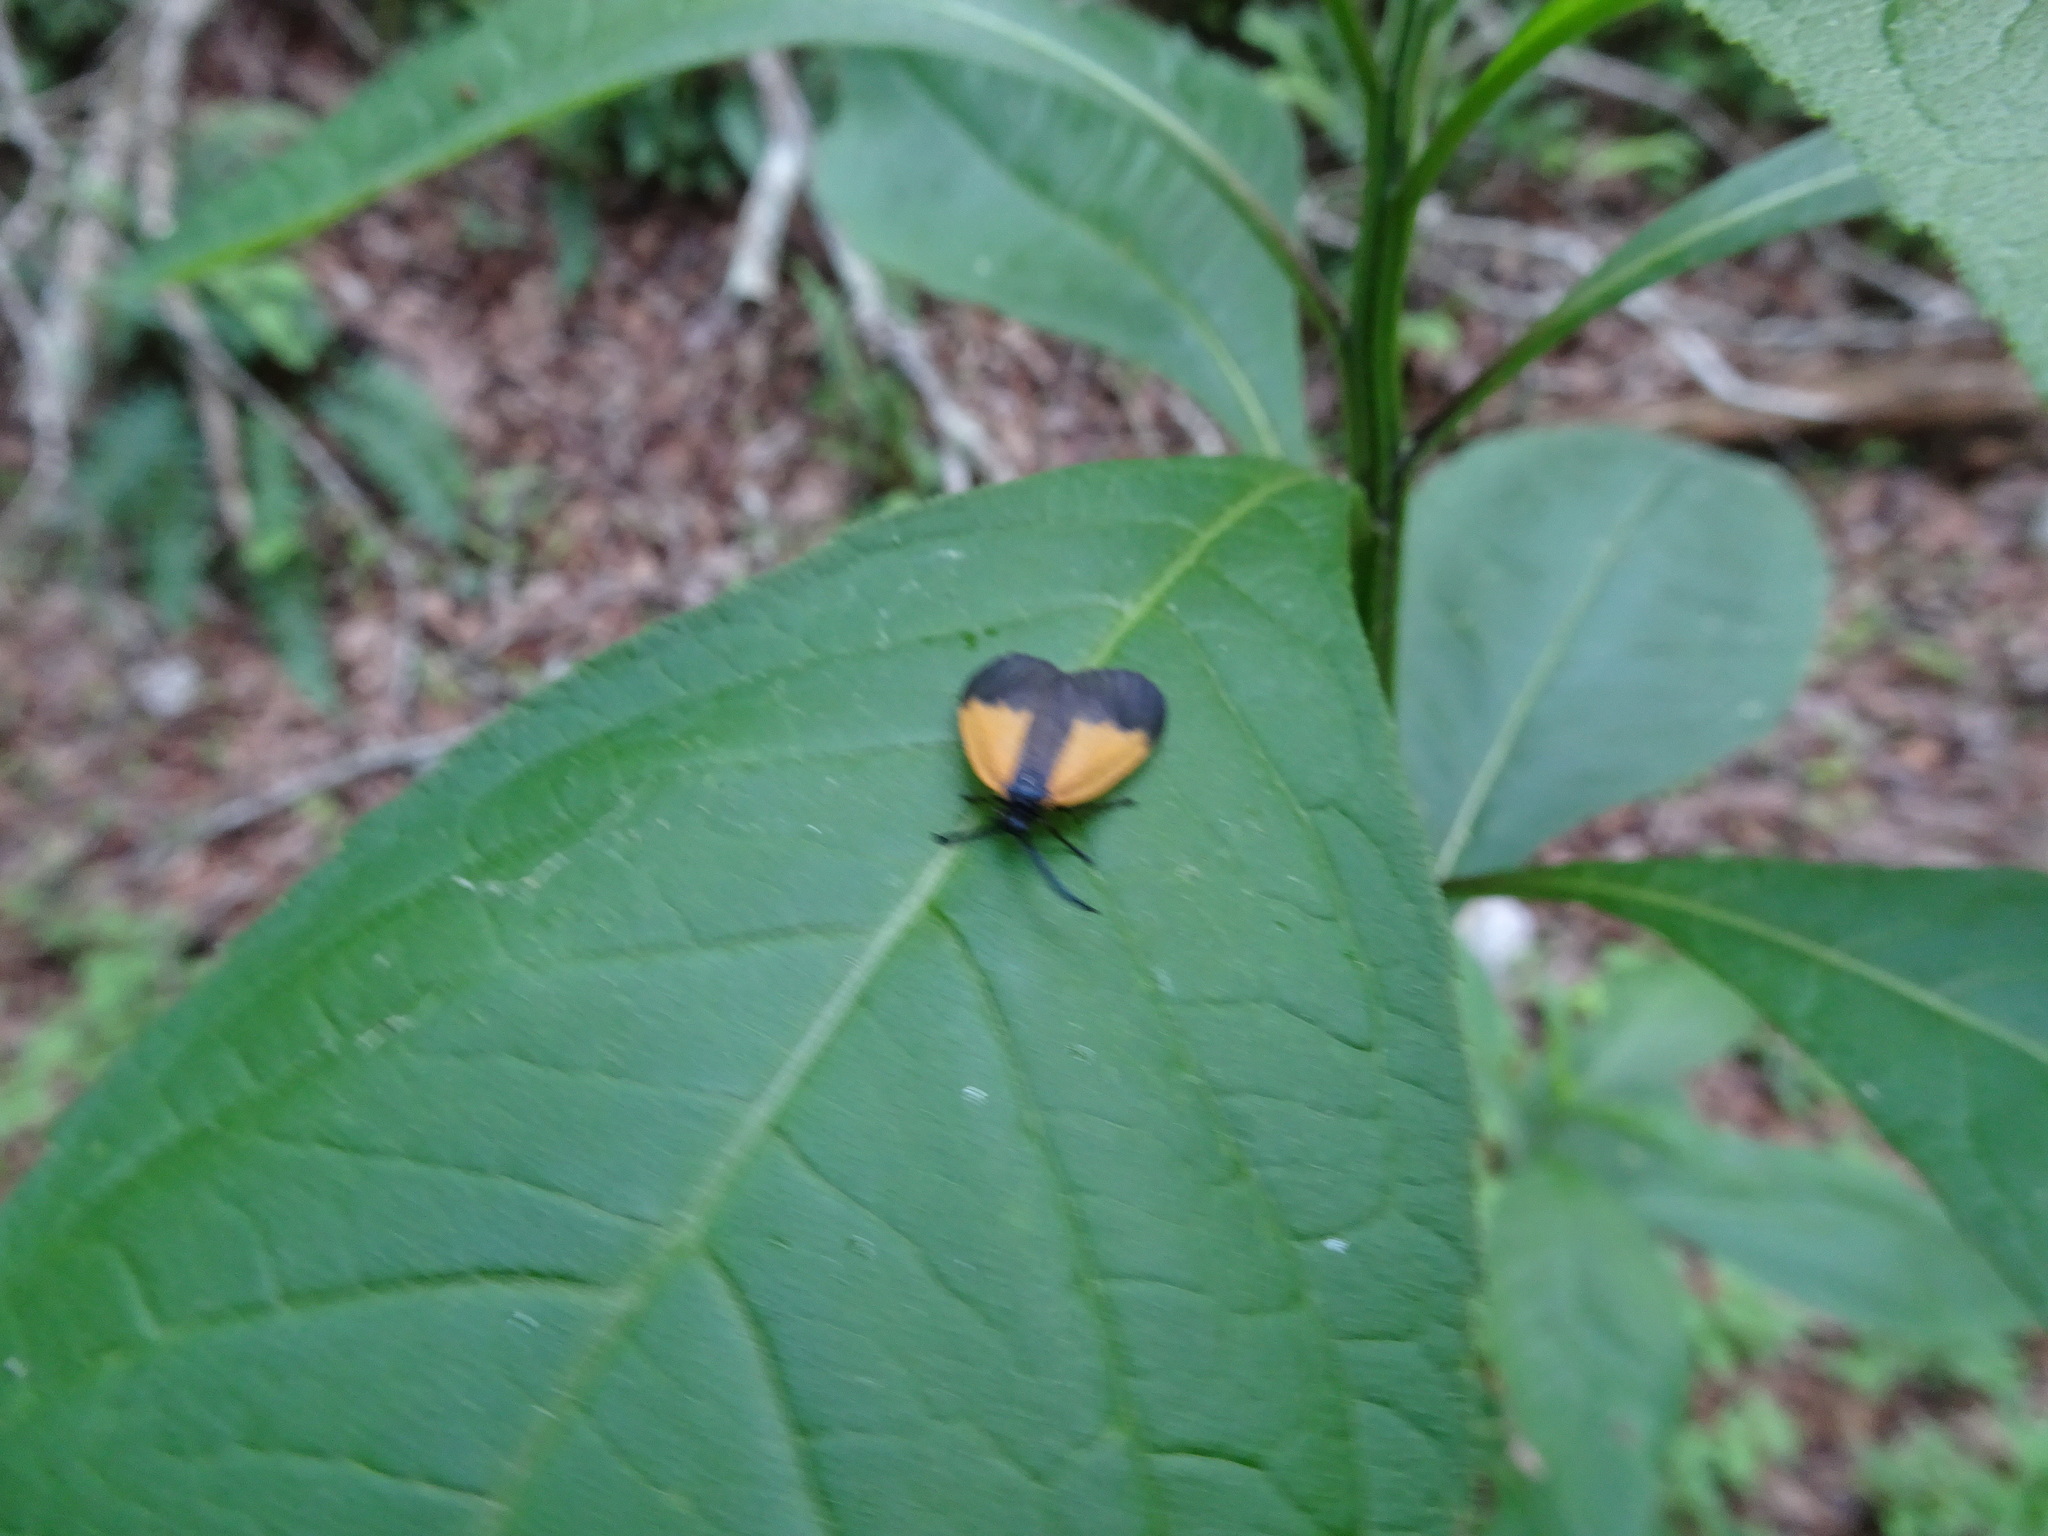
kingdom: Animalia
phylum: Arthropoda
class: Insecta
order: Lepidoptera
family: Zygaenidae
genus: Malthaca
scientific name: Malthaca dimidiata
